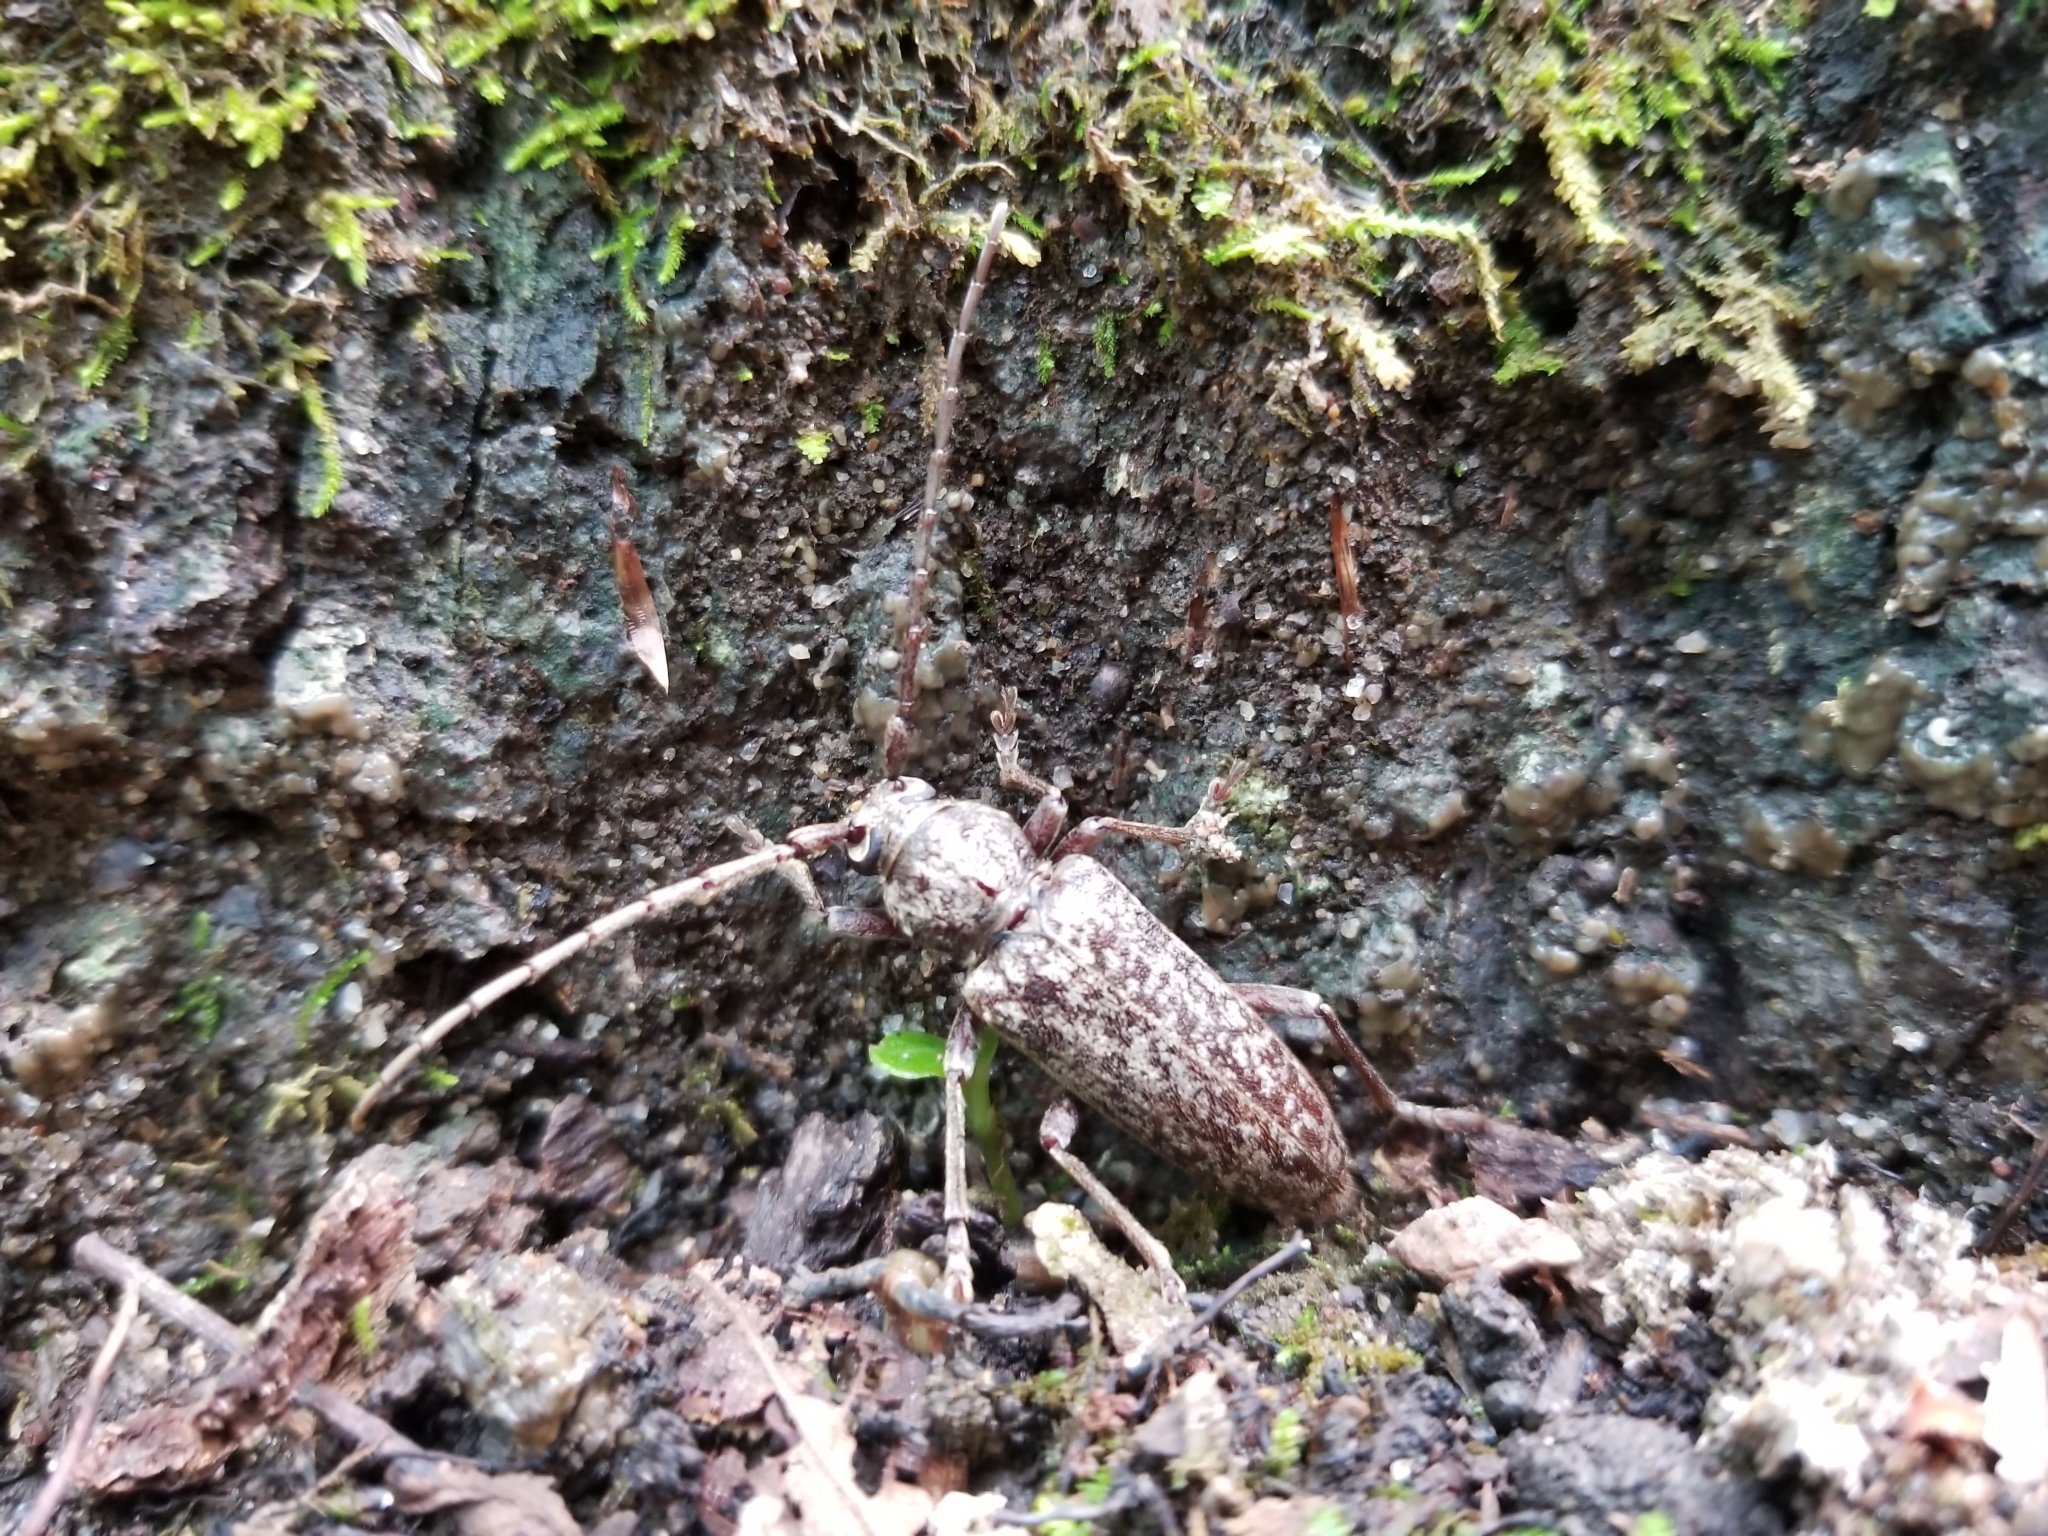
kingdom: Animalia
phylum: Arthropoda
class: Insecta
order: Coleoptera
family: Cerambycidae
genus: Enaphalodes
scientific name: Enaphalodes atomarius
